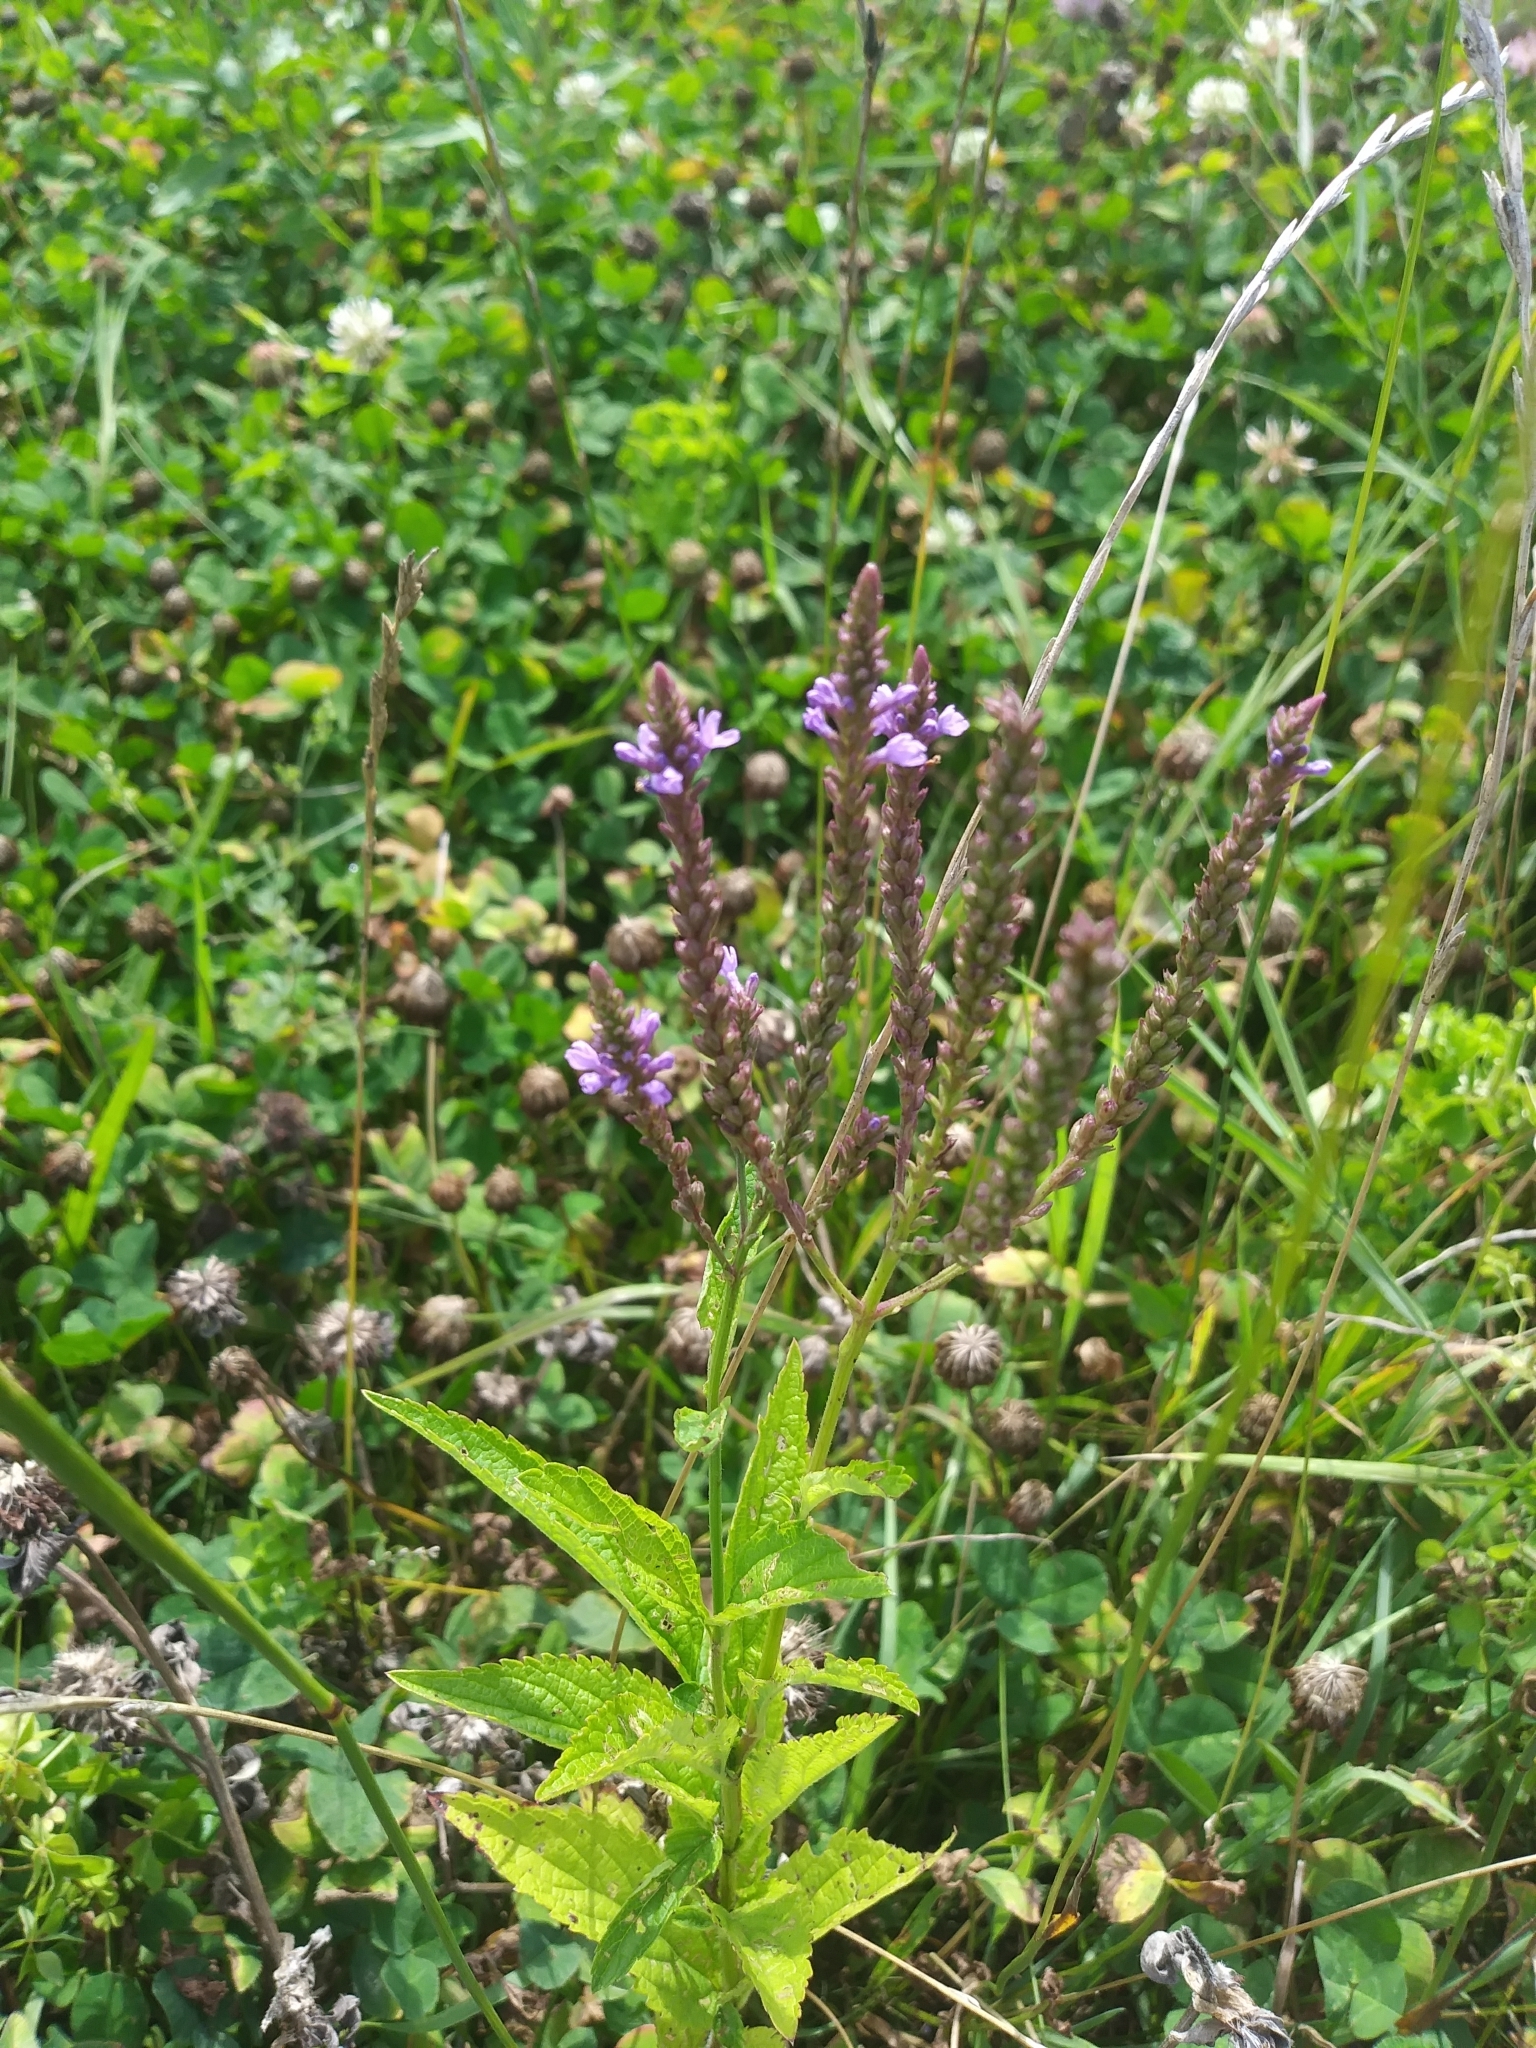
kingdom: Plantae
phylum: Tracheophyta
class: Magnoliopsida
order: Lamiales
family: Verbenaceae
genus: Verbena
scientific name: Verbena hastata
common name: American blue vervain
